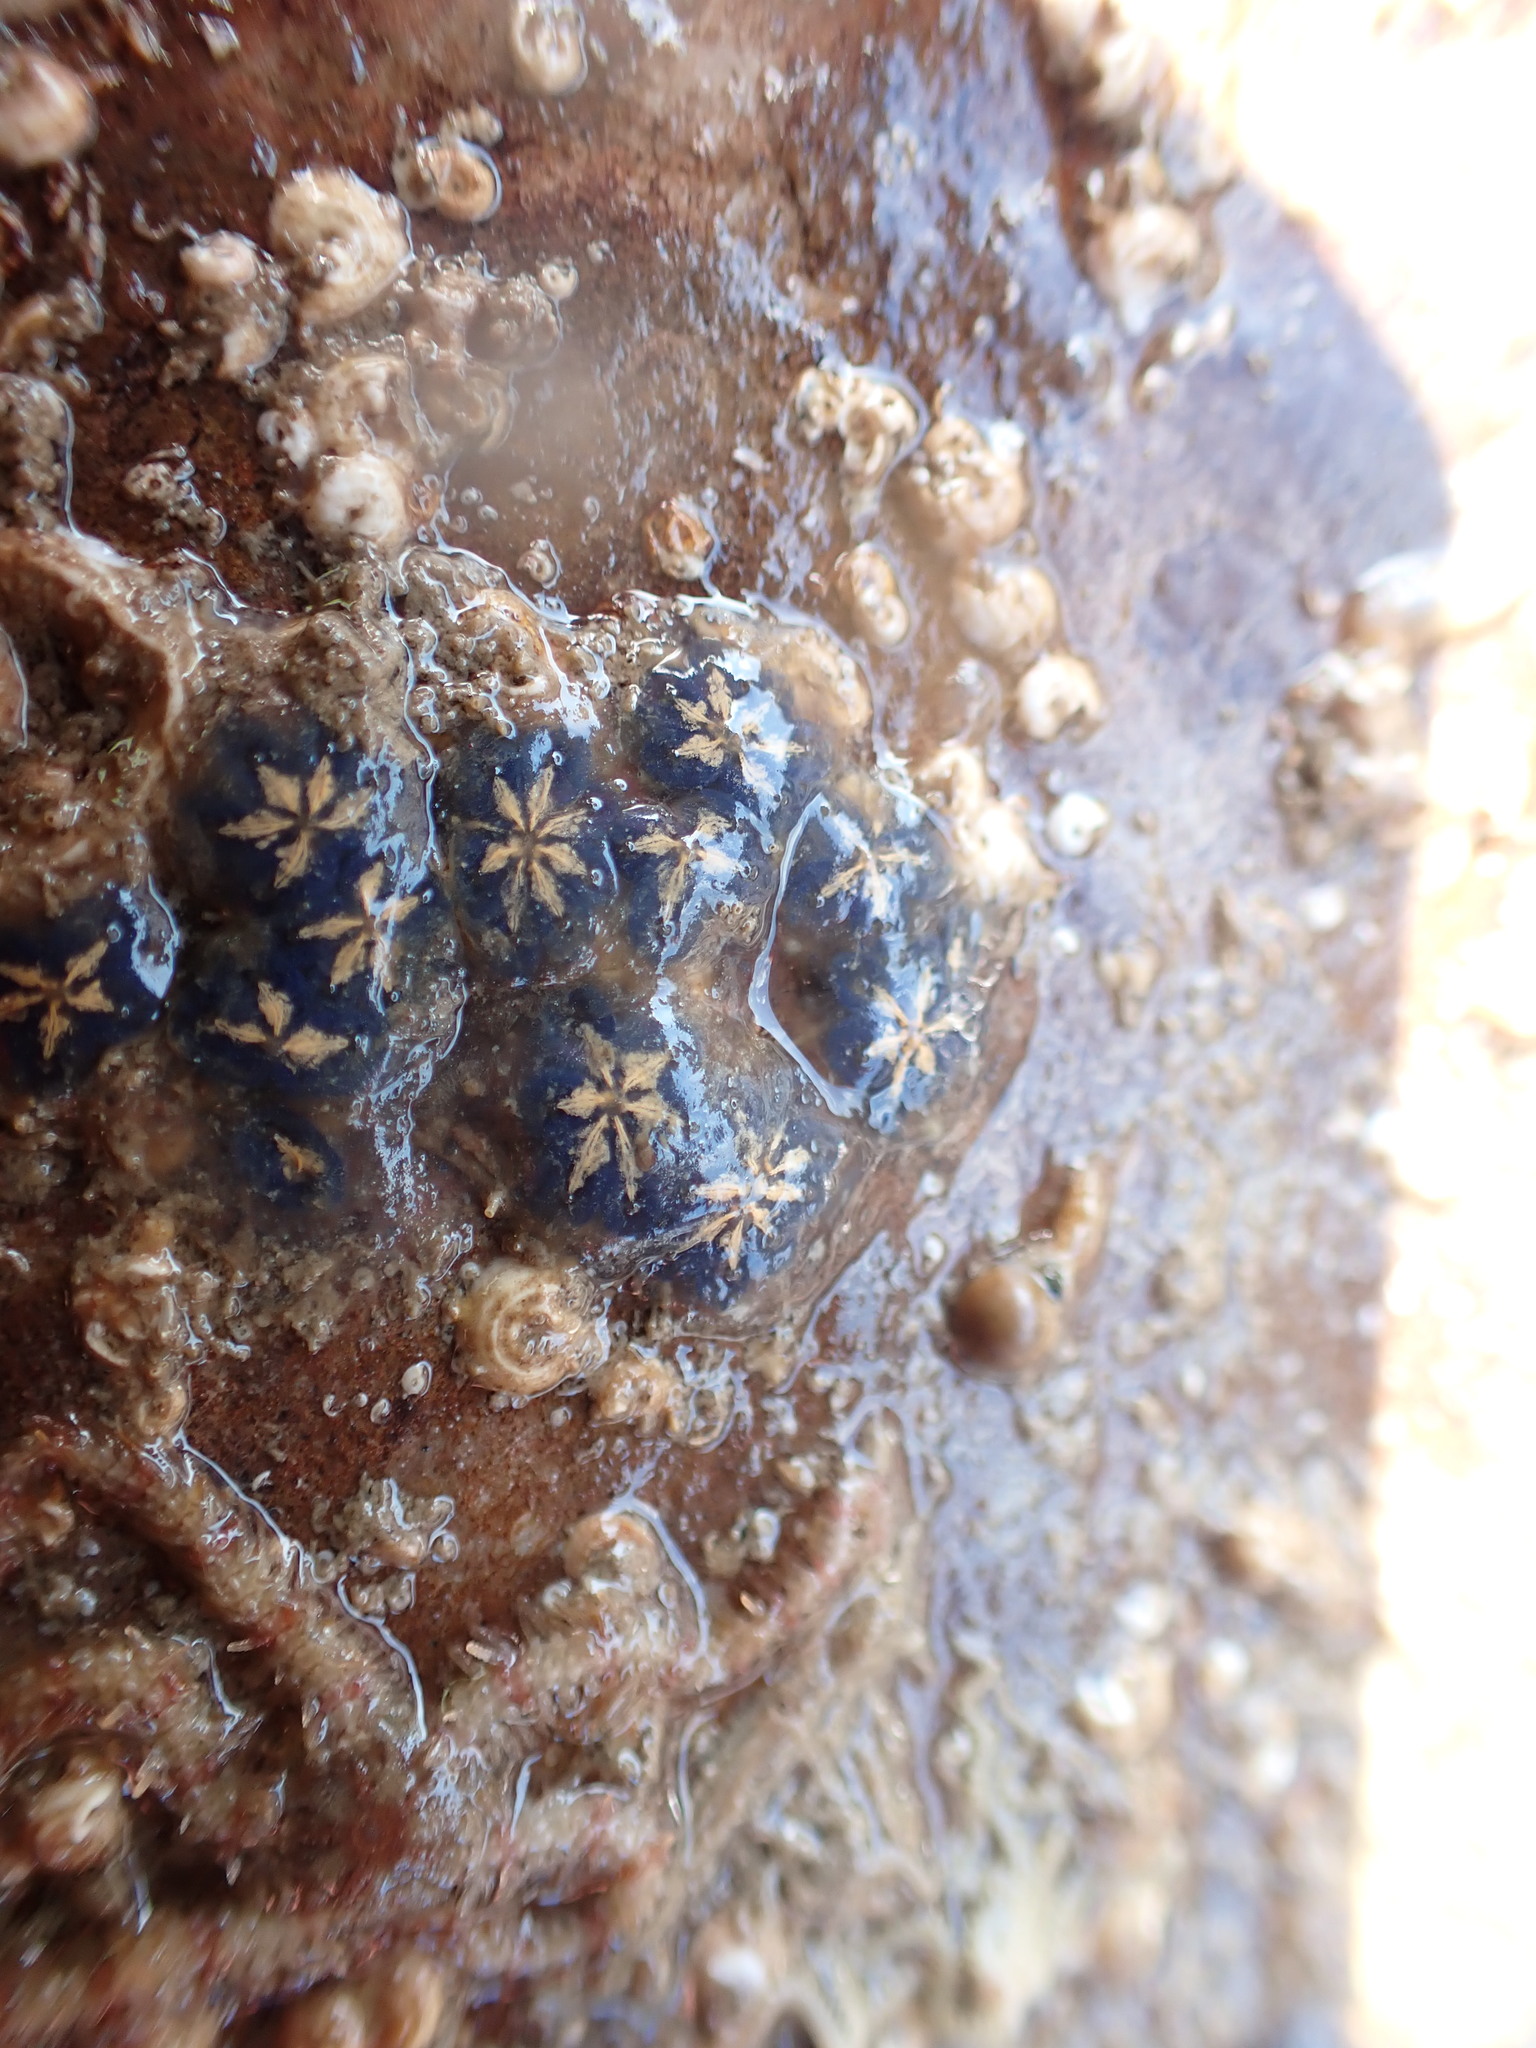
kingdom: Animalia
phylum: Chordata
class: Ascidiacea
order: Stolidobranchia
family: Styelidae
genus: Botryllus
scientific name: Botryllus schlosseri
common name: Golden star tunicate
